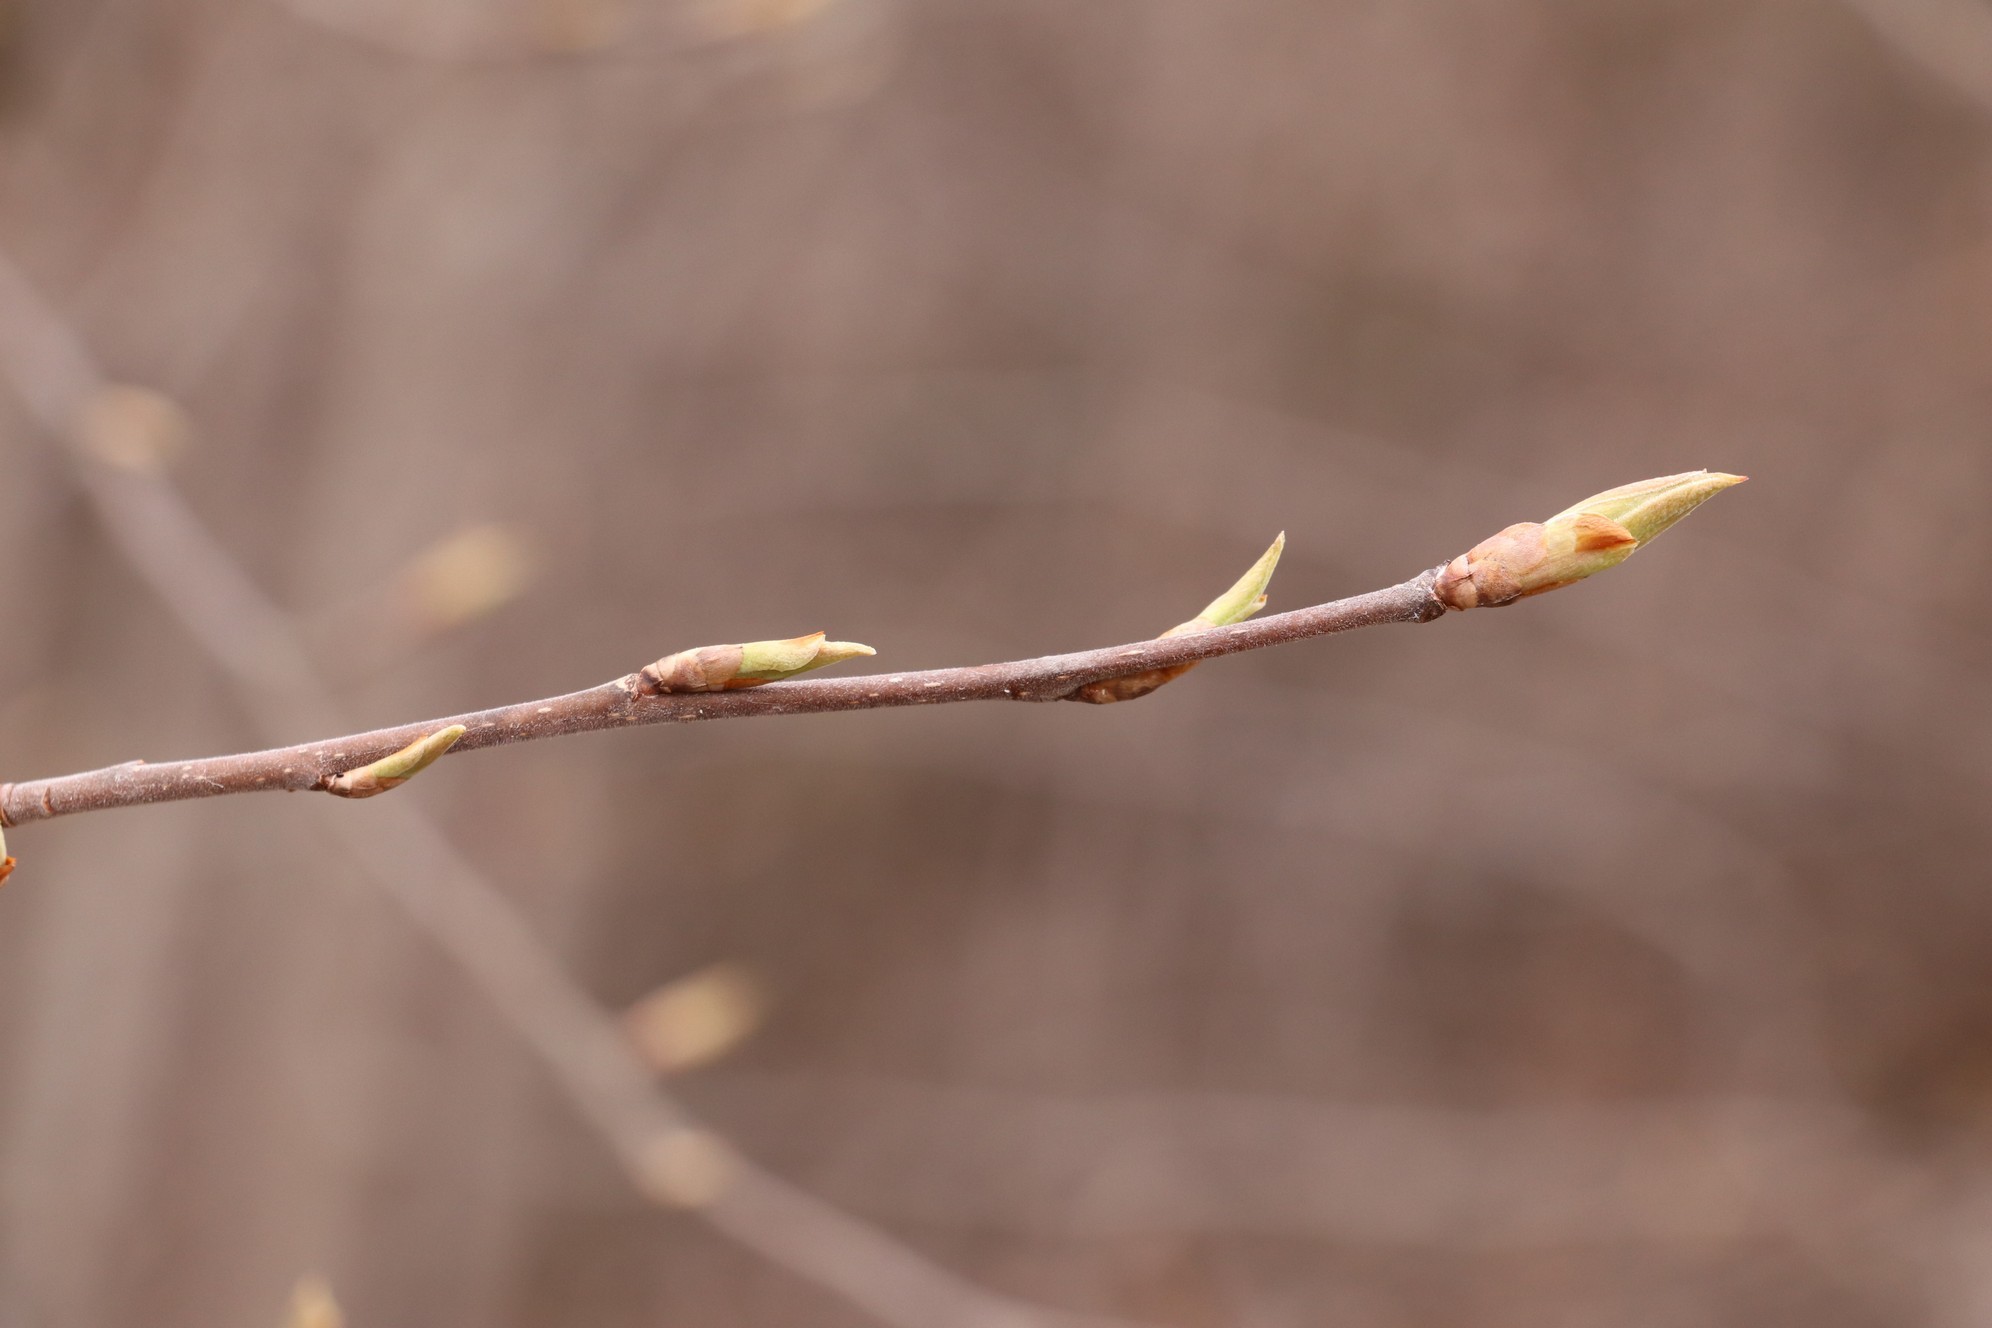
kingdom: Plantae
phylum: Tracheophyta
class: Magnoliopsida
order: Rosales
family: Rosaceae
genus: Prunus
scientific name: Prunus padus
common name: Bird cherry
